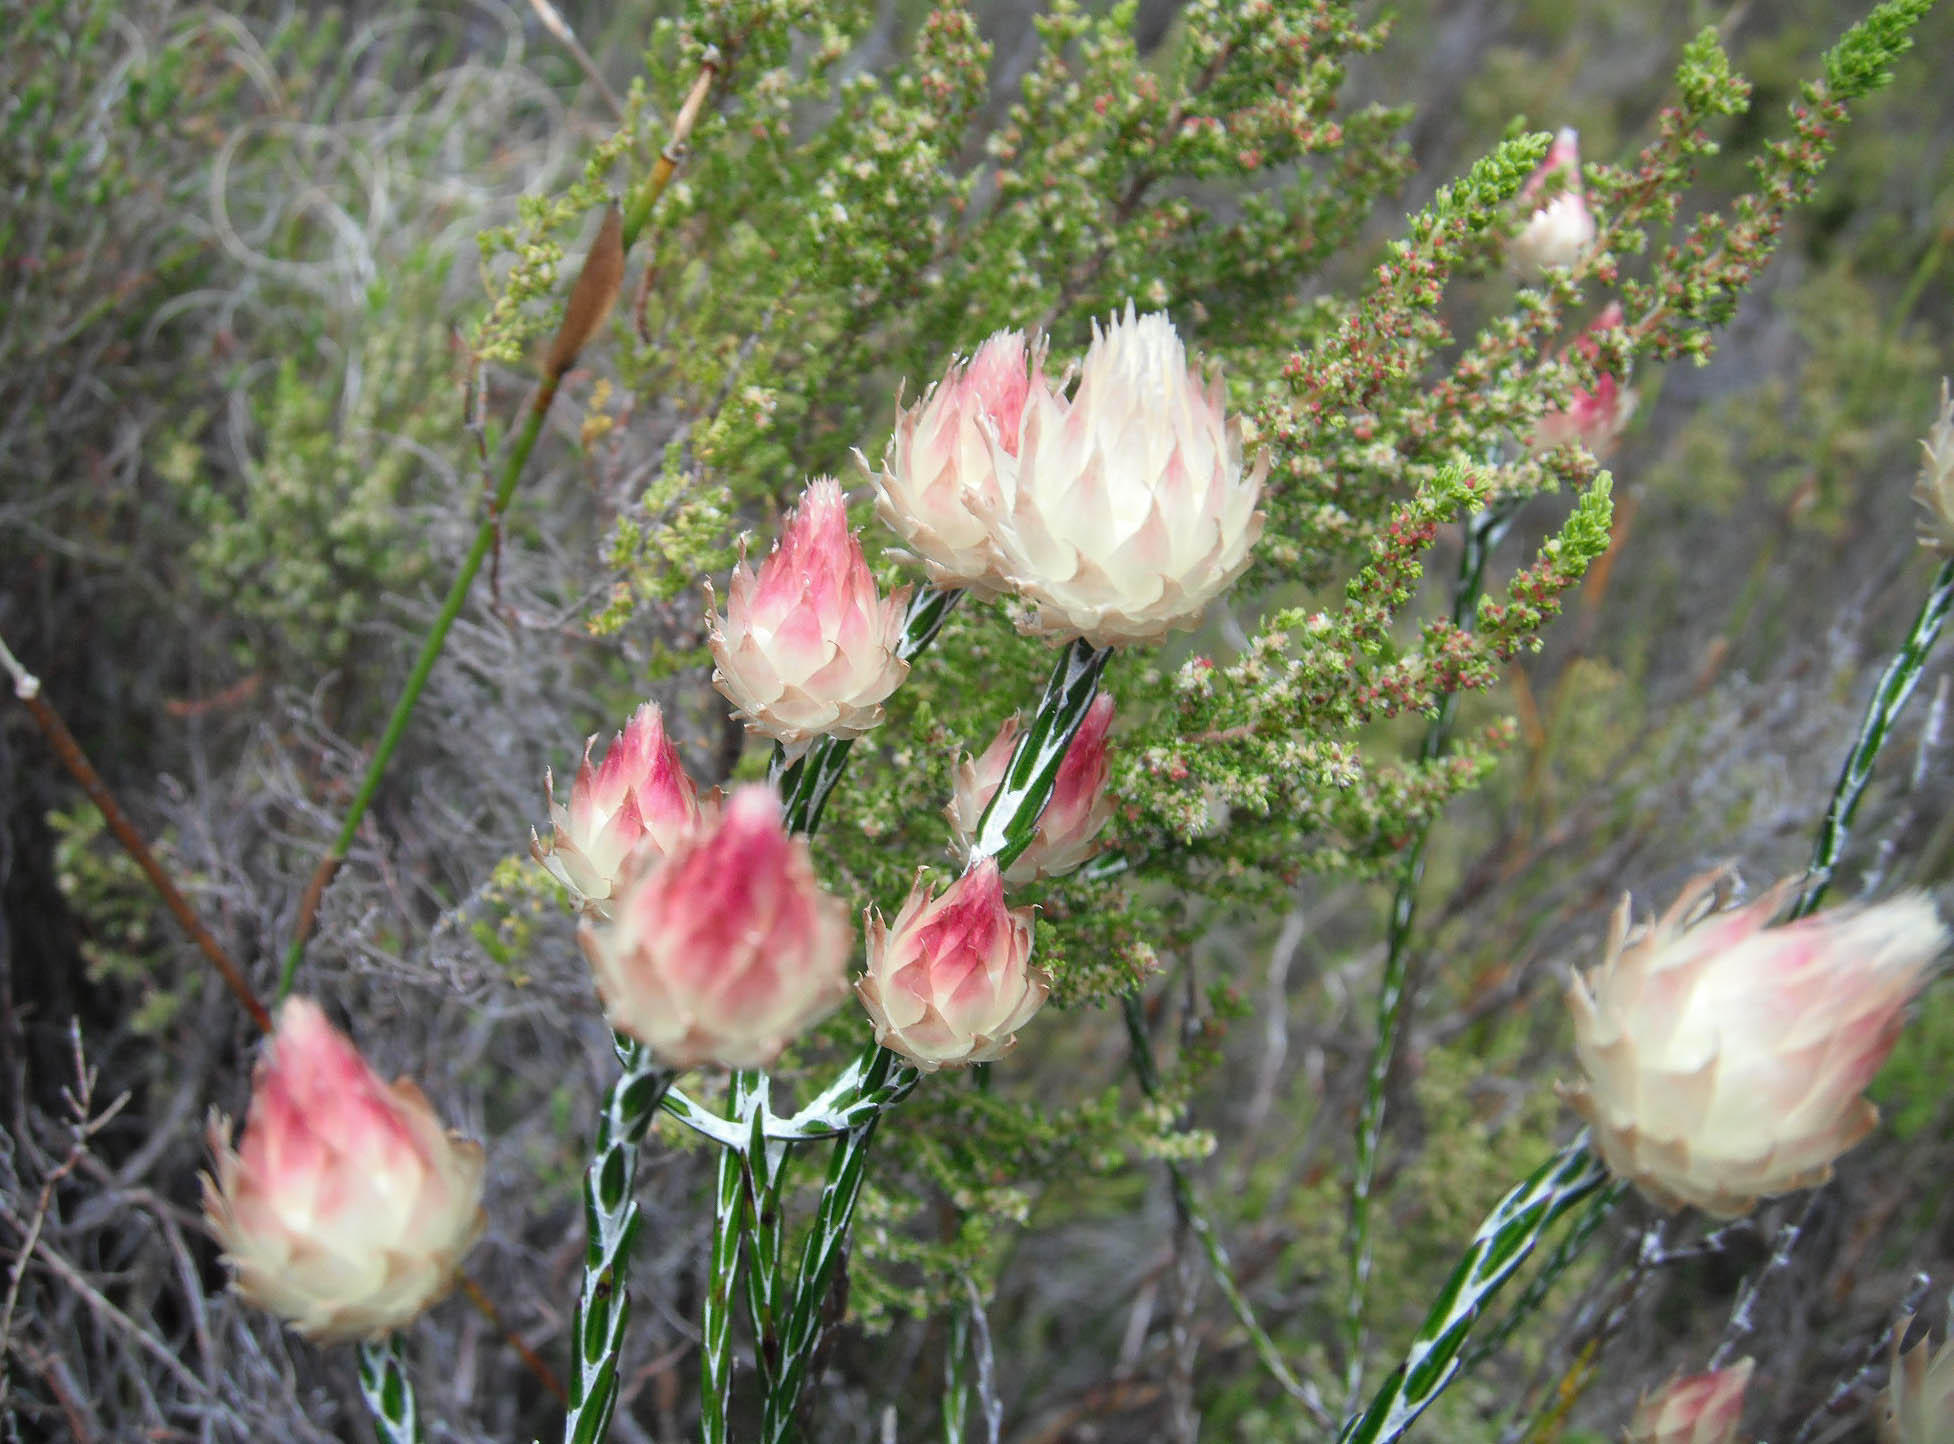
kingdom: Plantae
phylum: Tracheophyta
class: Magnoliopsida
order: Asterales
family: Asteraceae
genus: Edmondia
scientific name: Edmondia sesamoides
